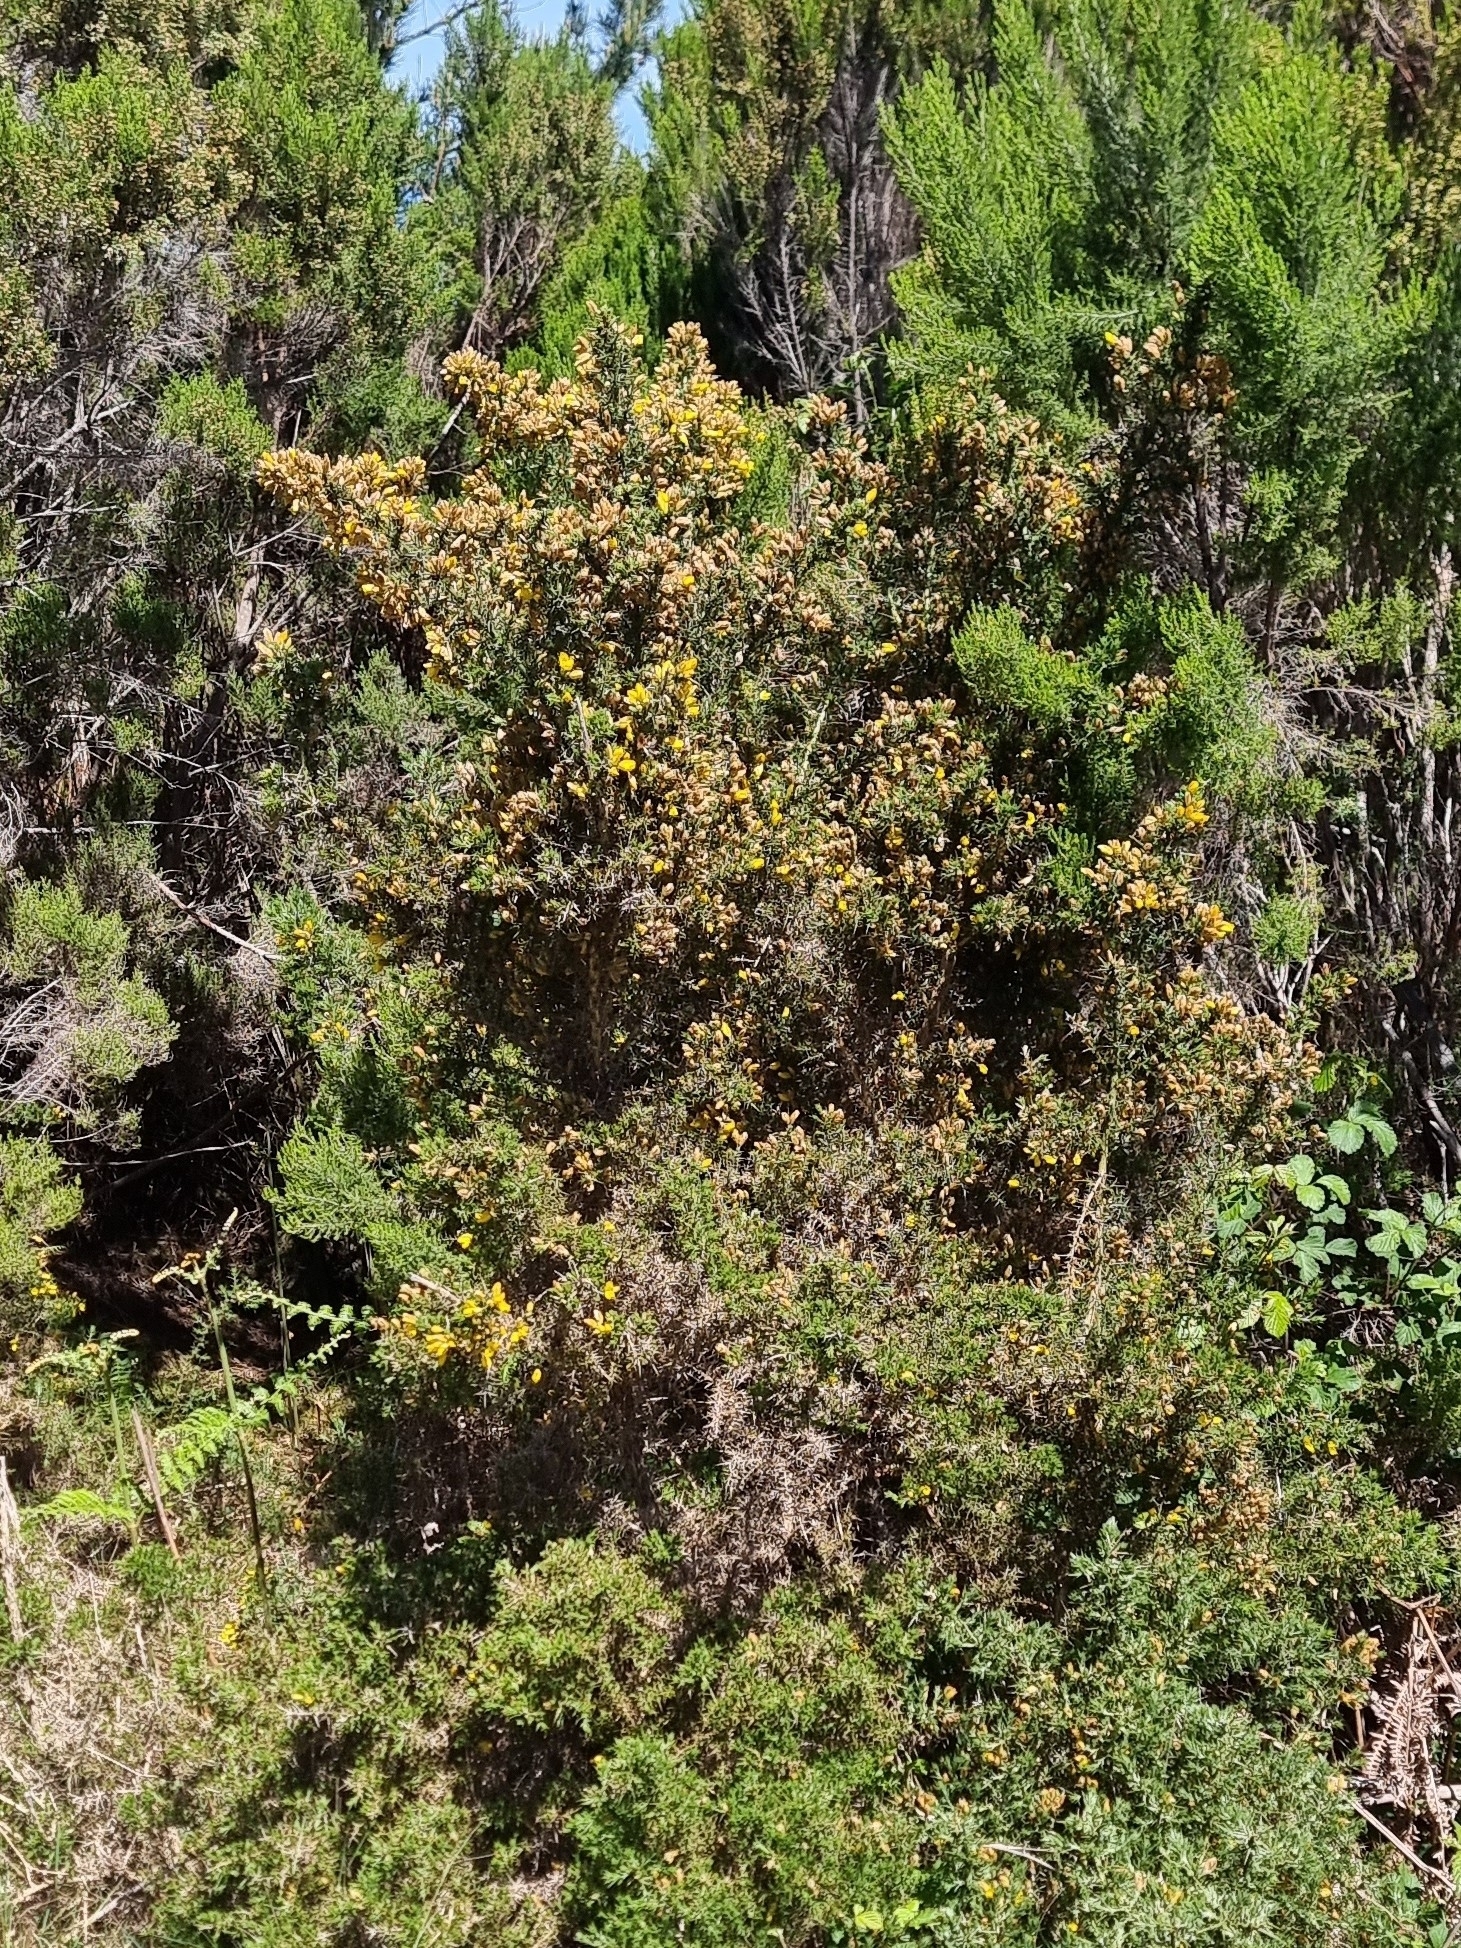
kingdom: Plantae
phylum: Tracheophyta
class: Magnoliopsida
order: Fabales
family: Fabaceae
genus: Ulex
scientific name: Ulex europaeus
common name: Common gorse
